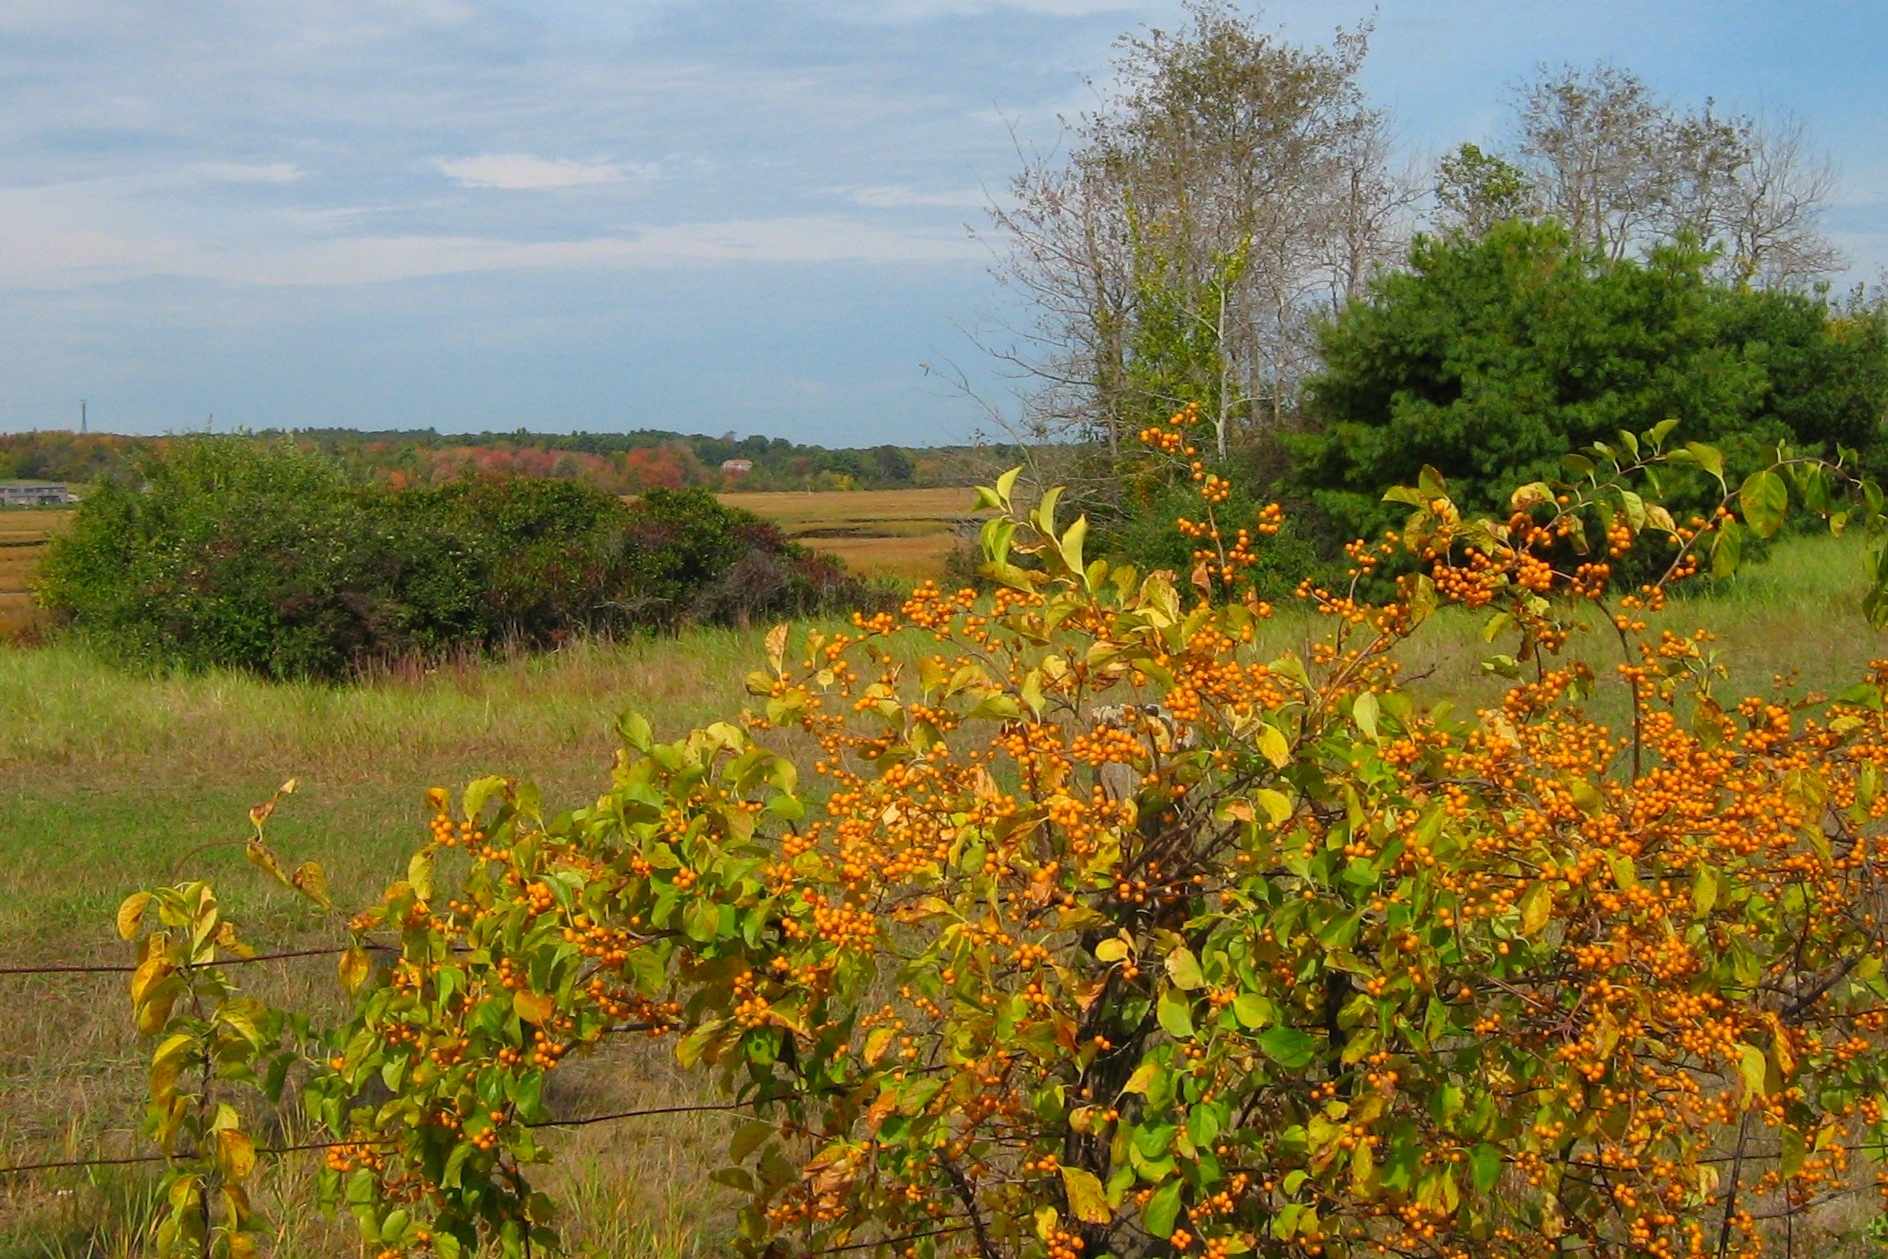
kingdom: Plantae
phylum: Tracheophyta
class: Magnoliopsida
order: Celastrales
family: Celastraceae
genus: Celastrus
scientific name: Celastrus orbiculatus
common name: Oriental bittersweet
